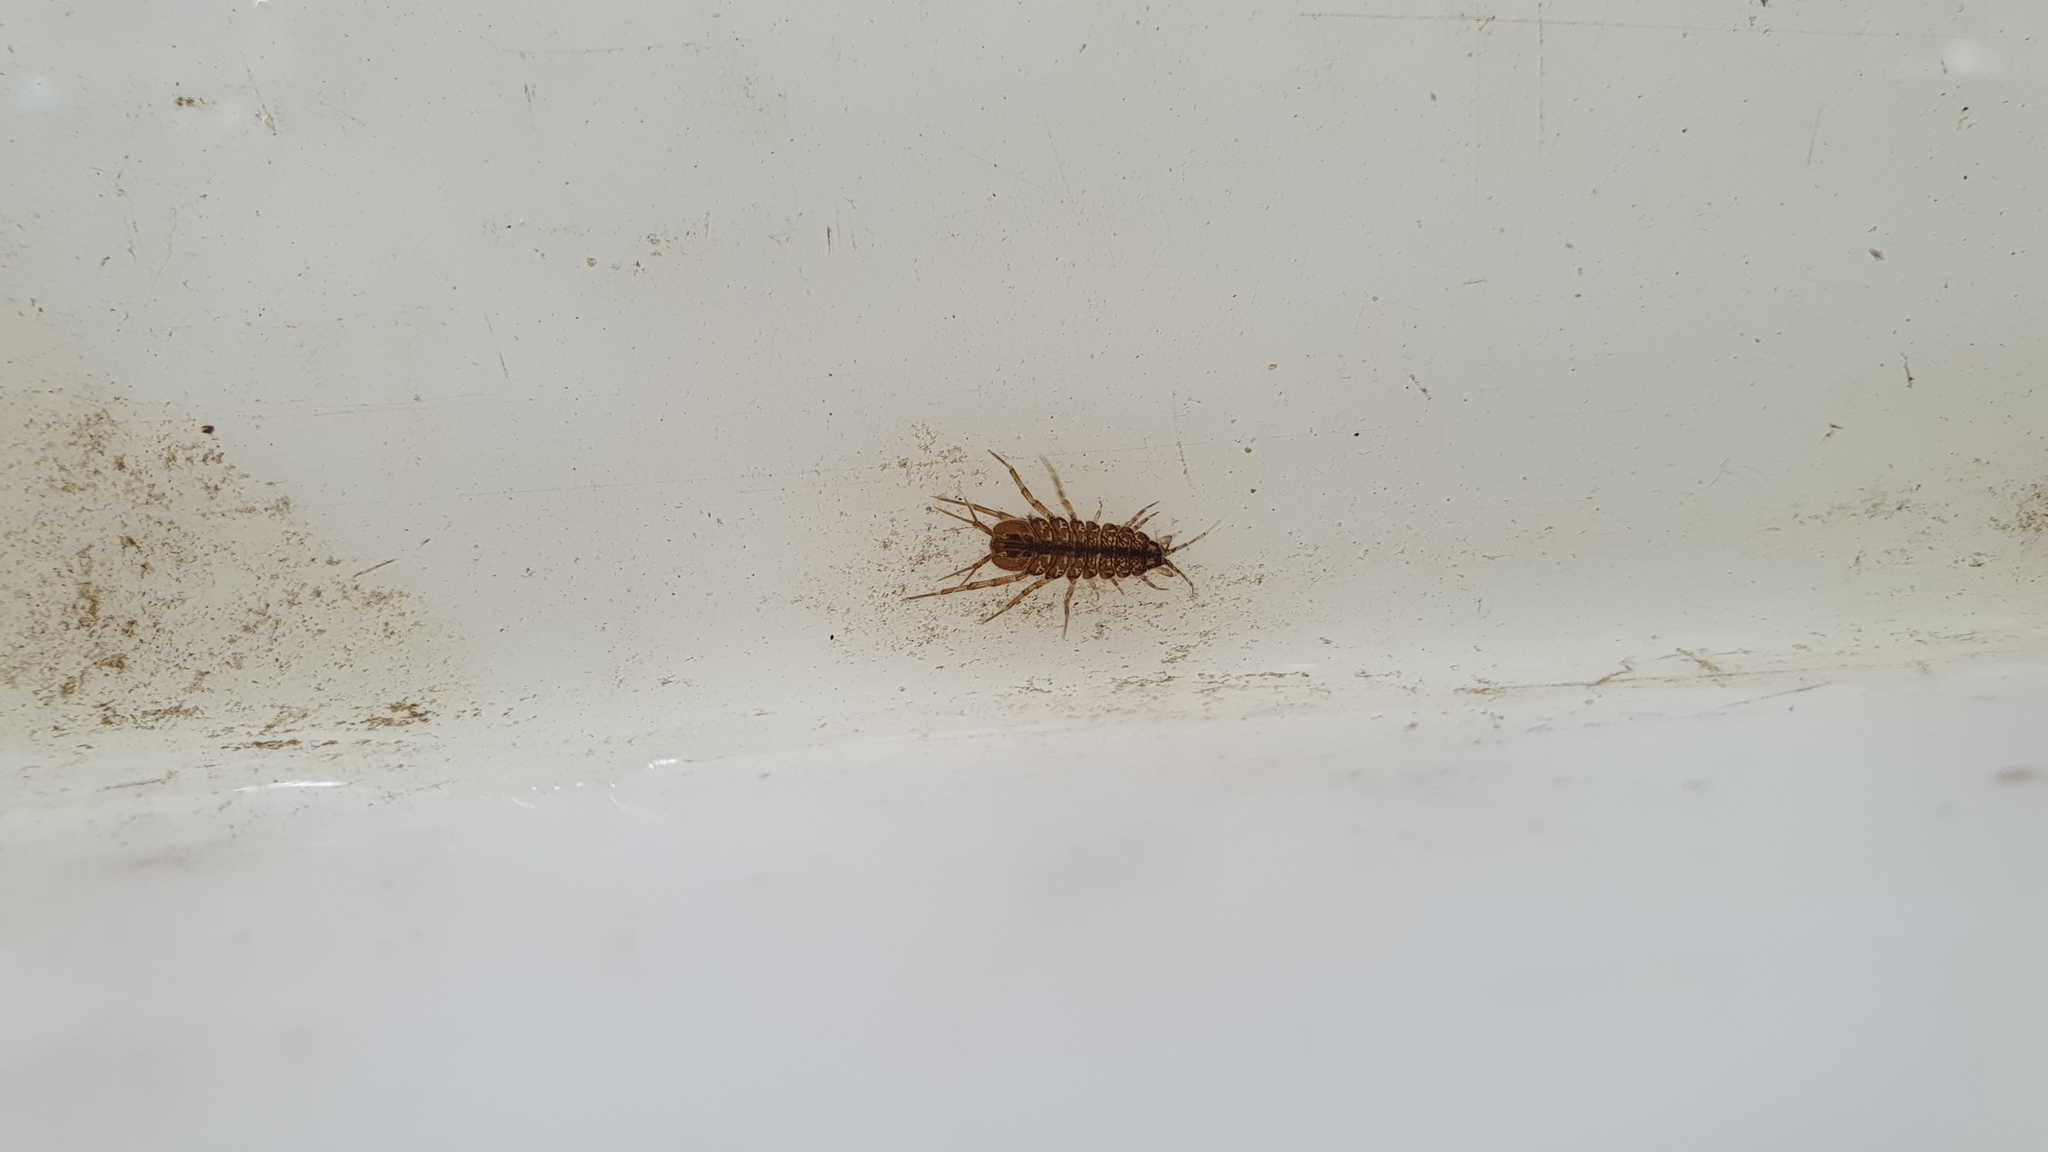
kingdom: Animalia
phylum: Arthropoda
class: Malacostraca
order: Isopoda
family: Asellidae
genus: Asellus
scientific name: Asellus aquaticus
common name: Water hog lice/slaters
